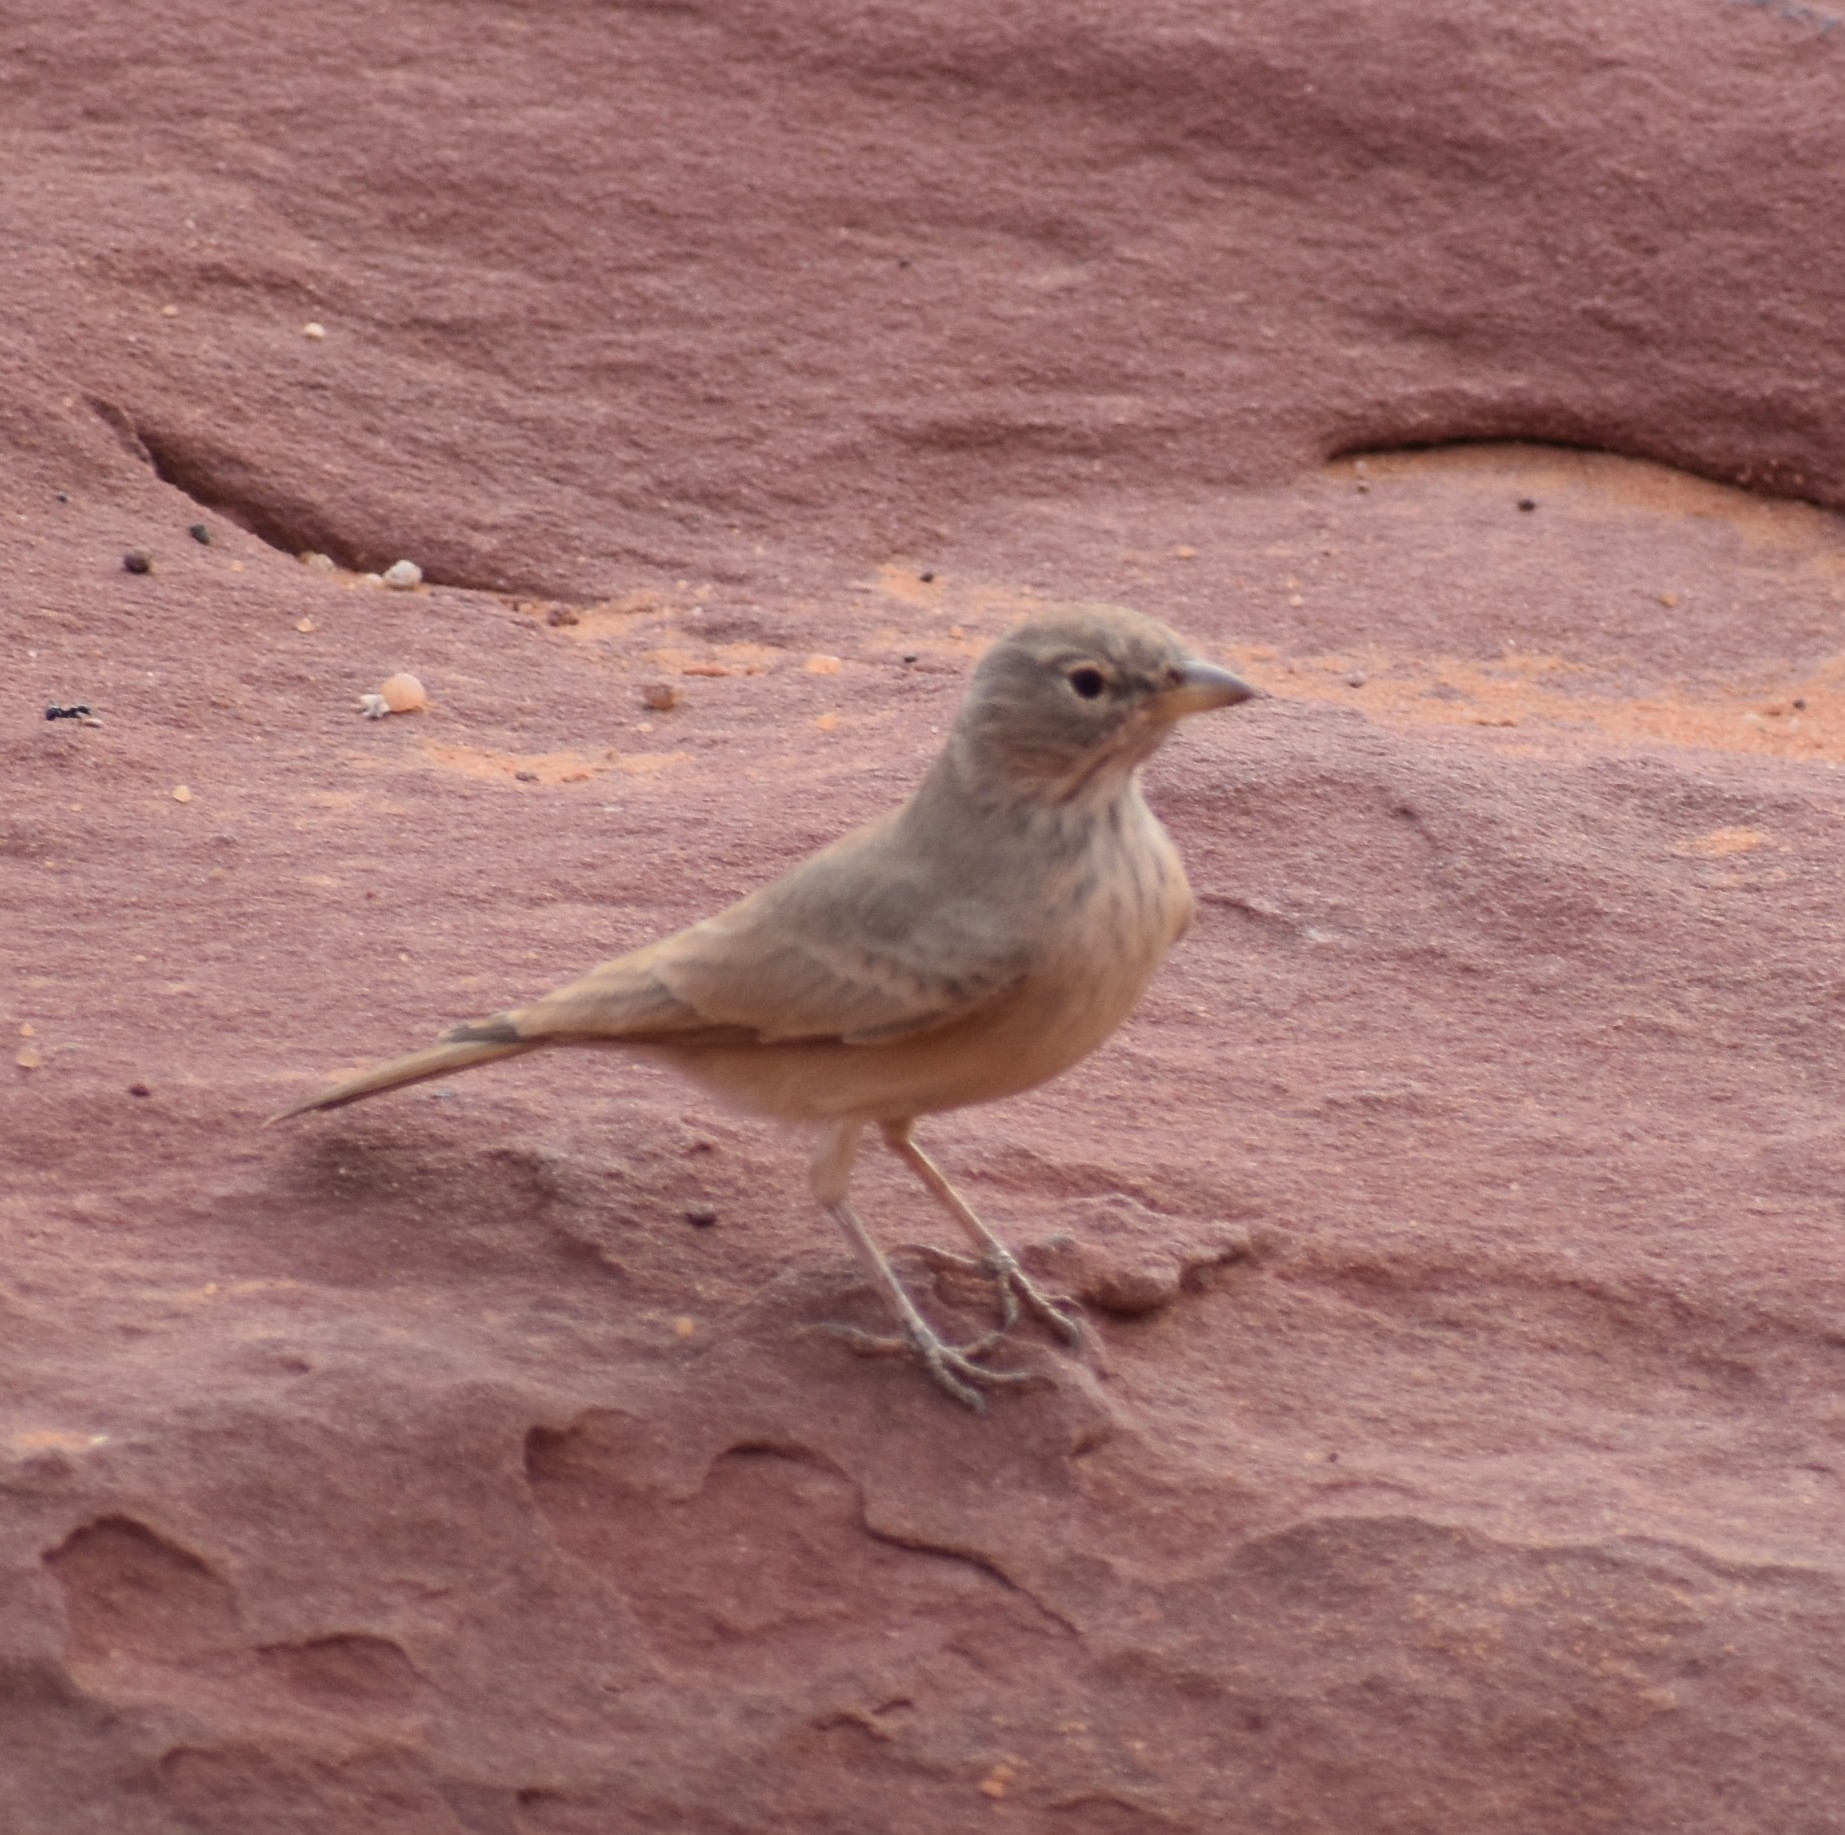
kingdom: Animalia
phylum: Chordata
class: Aves
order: Passeriformes
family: Alaudidae
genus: Ammomanes
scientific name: Ammomanes deserti
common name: Desert lark
